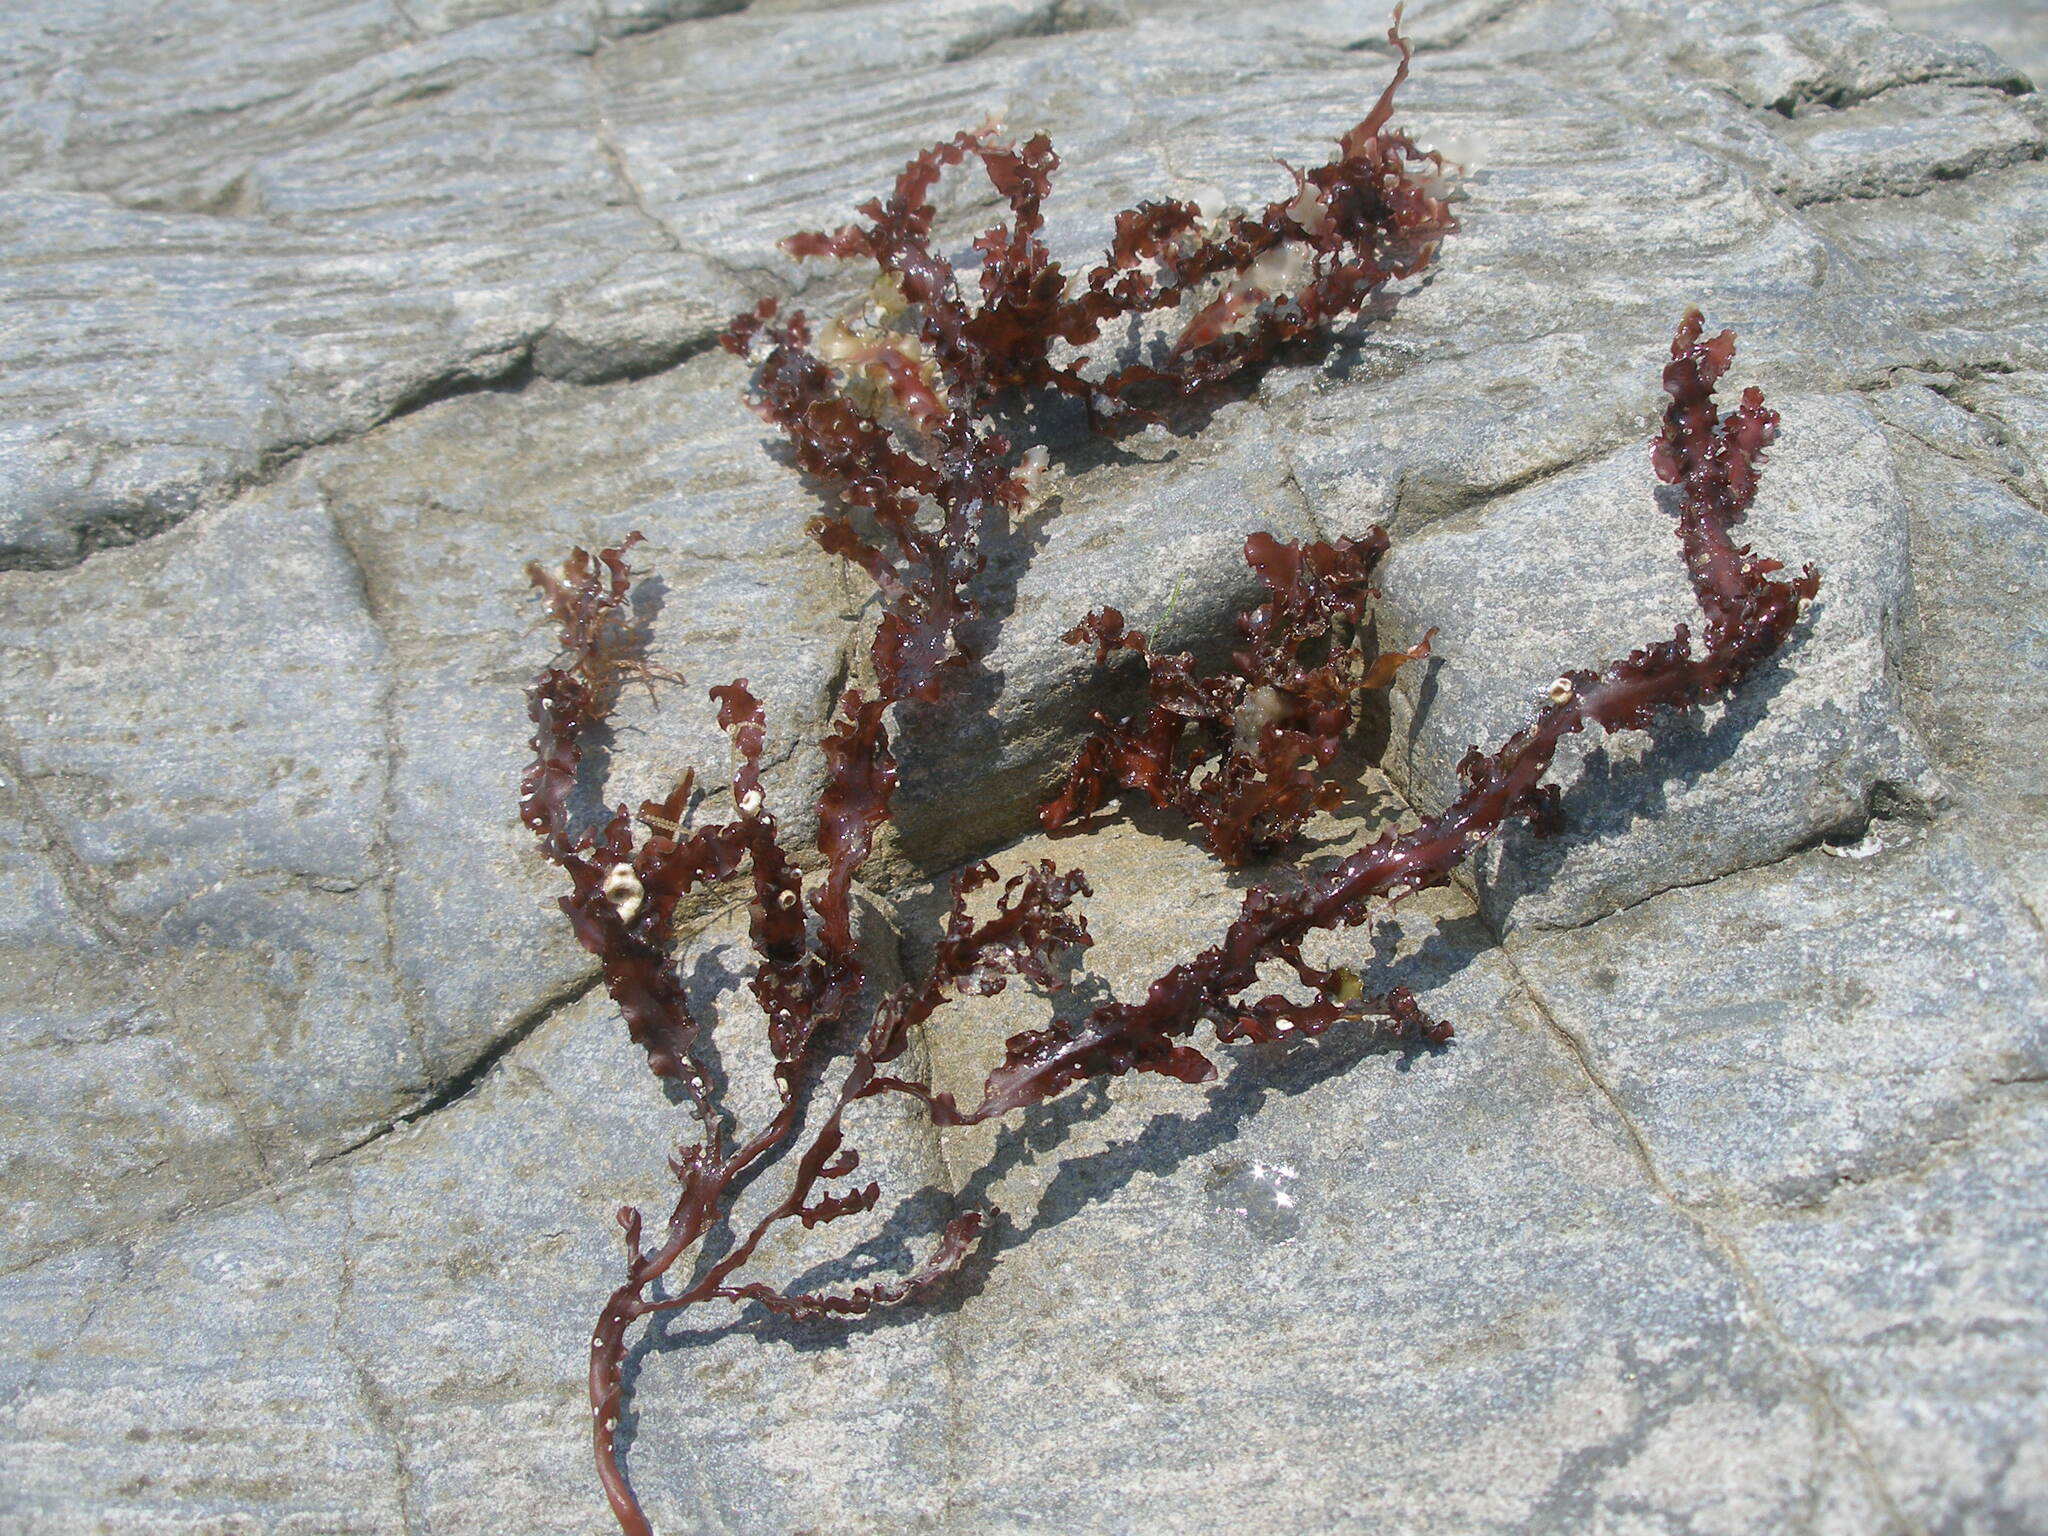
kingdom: Plantae
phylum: Rhodophyta
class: Florideophyceae
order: Gigartinales
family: Phyllophoraceae
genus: Phyllophora
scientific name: Phyllophora crispa
